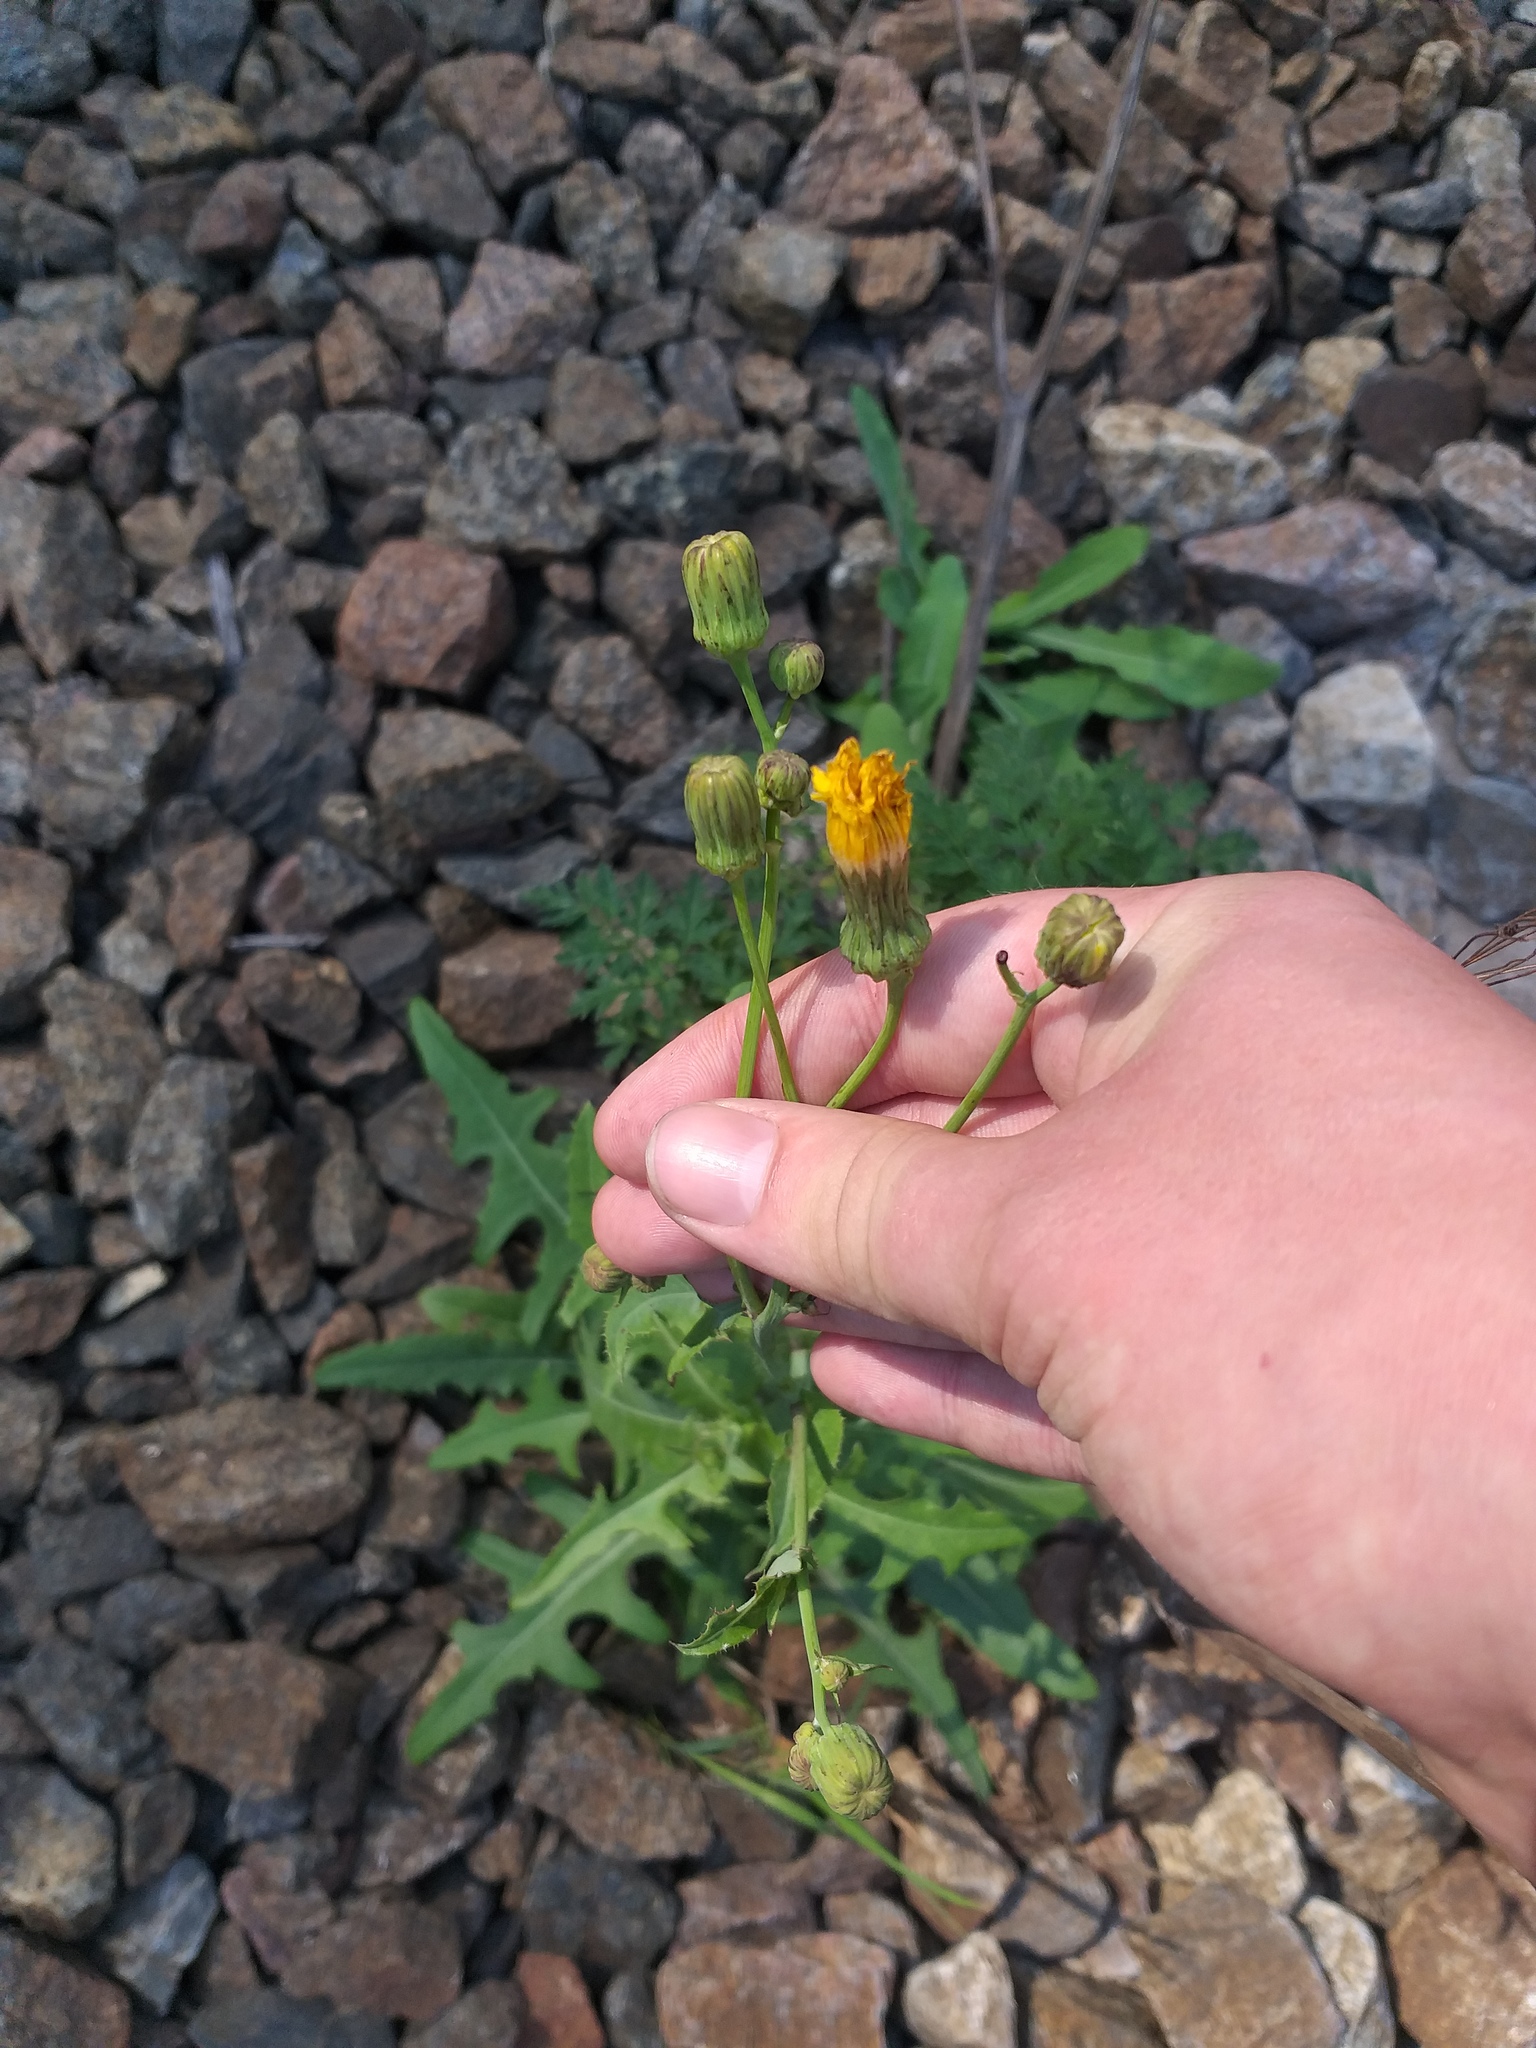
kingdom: Plantae
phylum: Tracheophyta
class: Magnoliopsida
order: Asterales
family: Asteraceae
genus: Sonchus
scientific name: Sonchus arvensis
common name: Perennial sow-thistle
